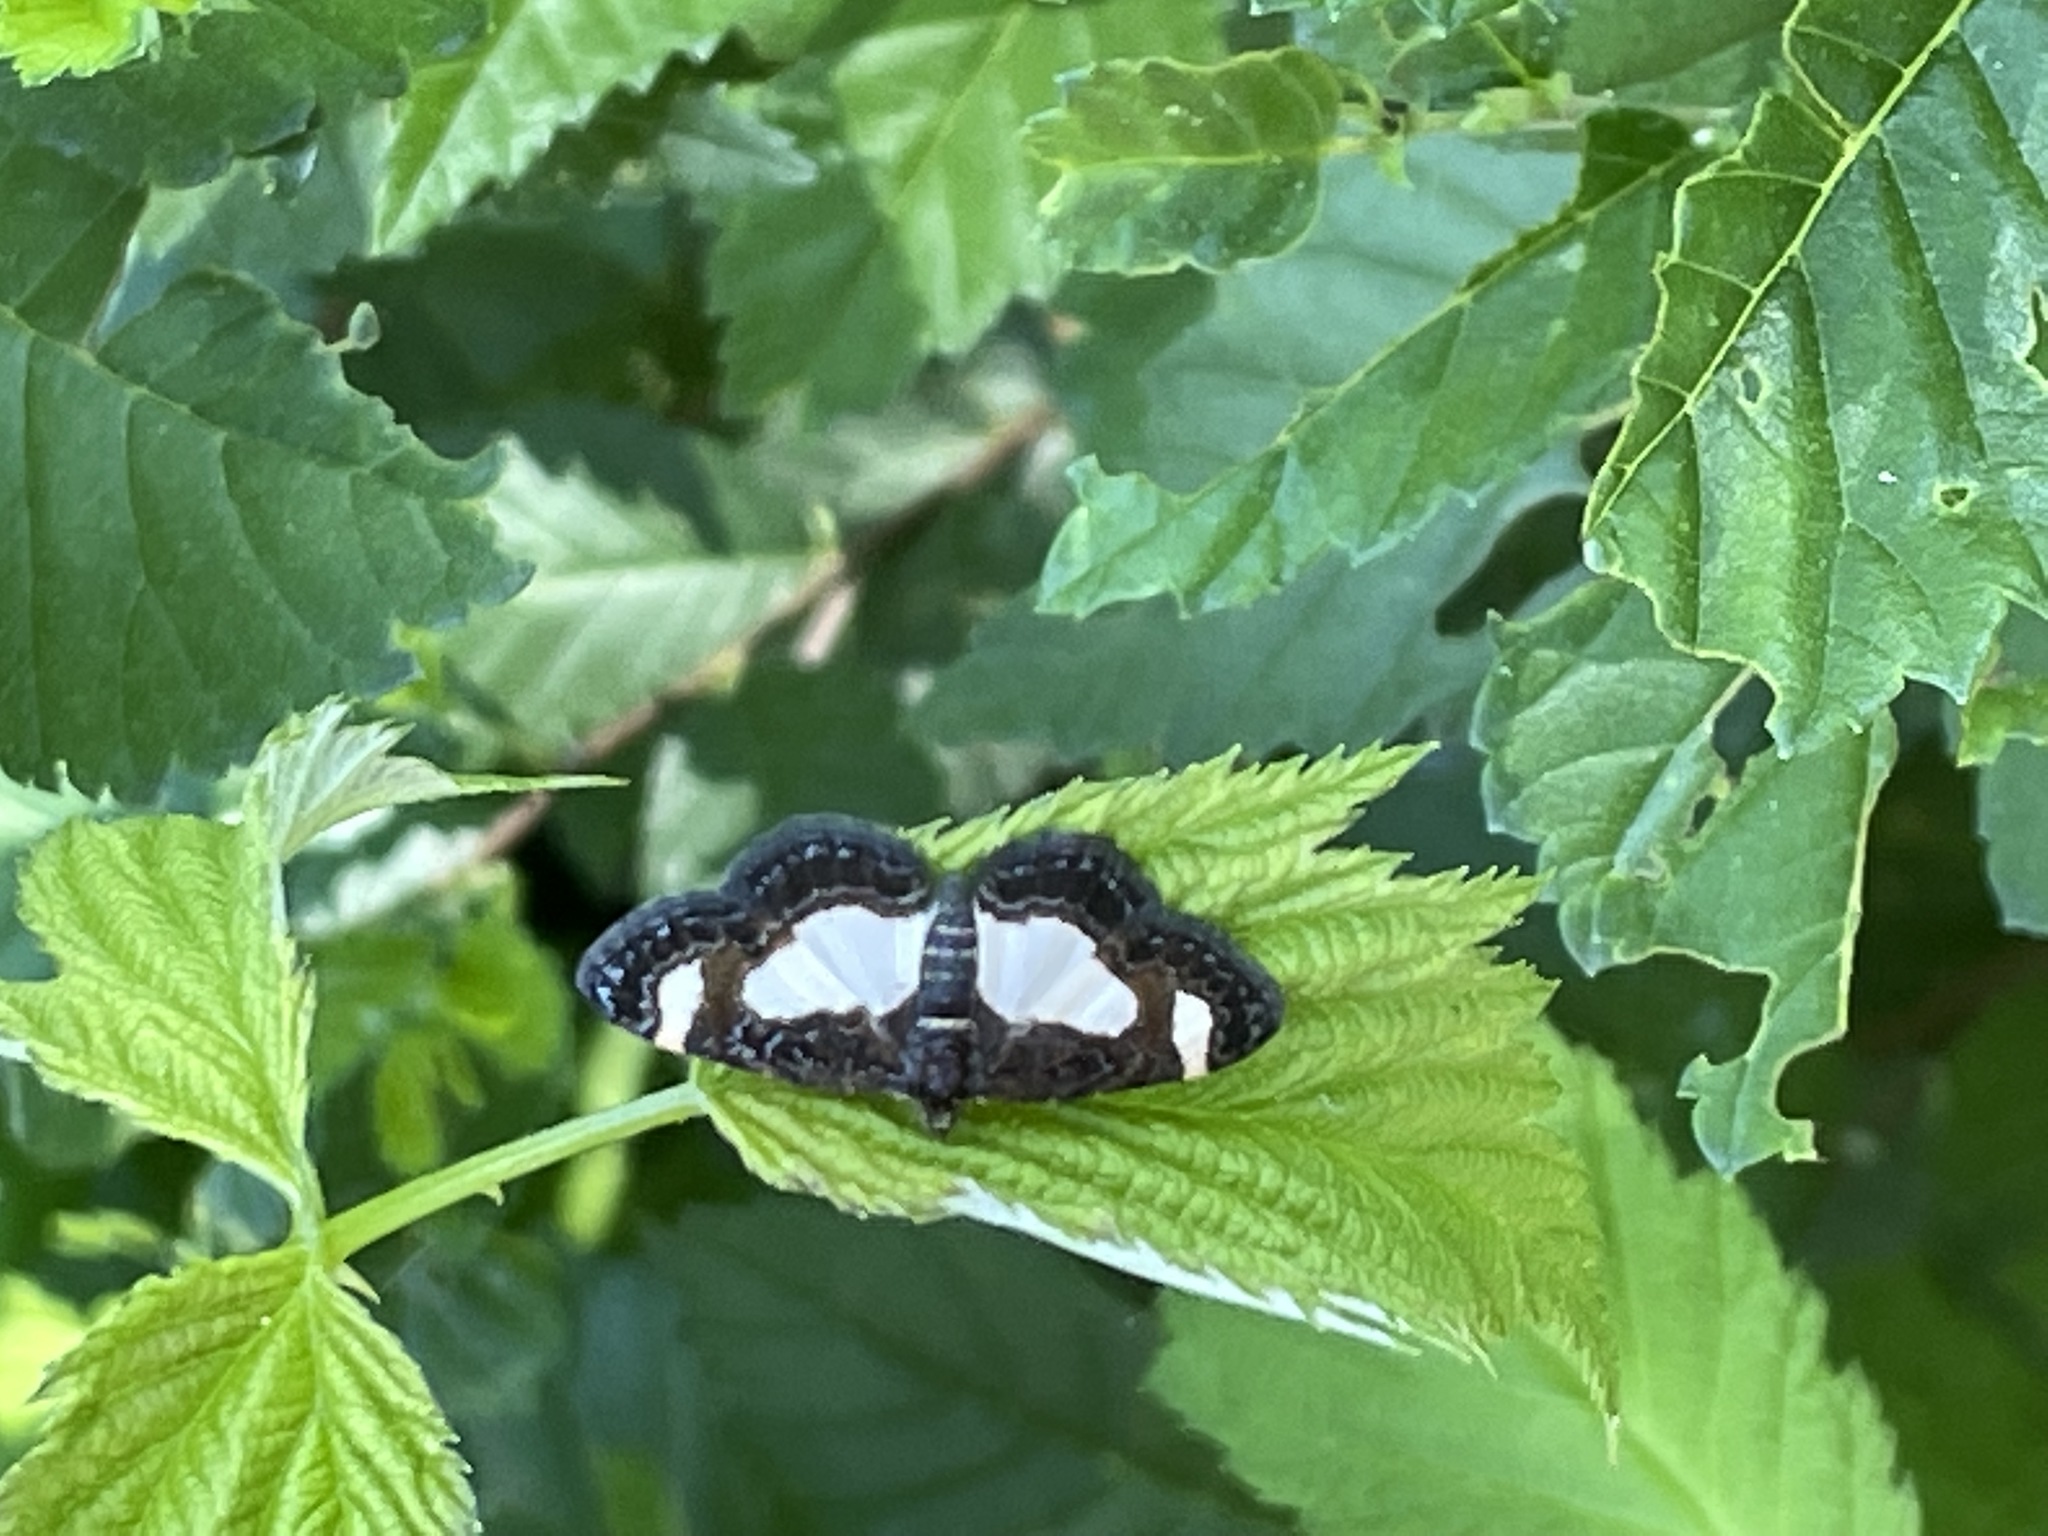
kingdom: Animalia
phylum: Arthropoda
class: Insecta
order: Lepidoptera
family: Geometridae
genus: Heliomata
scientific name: Heliomata cycladata
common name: Common spring moth
